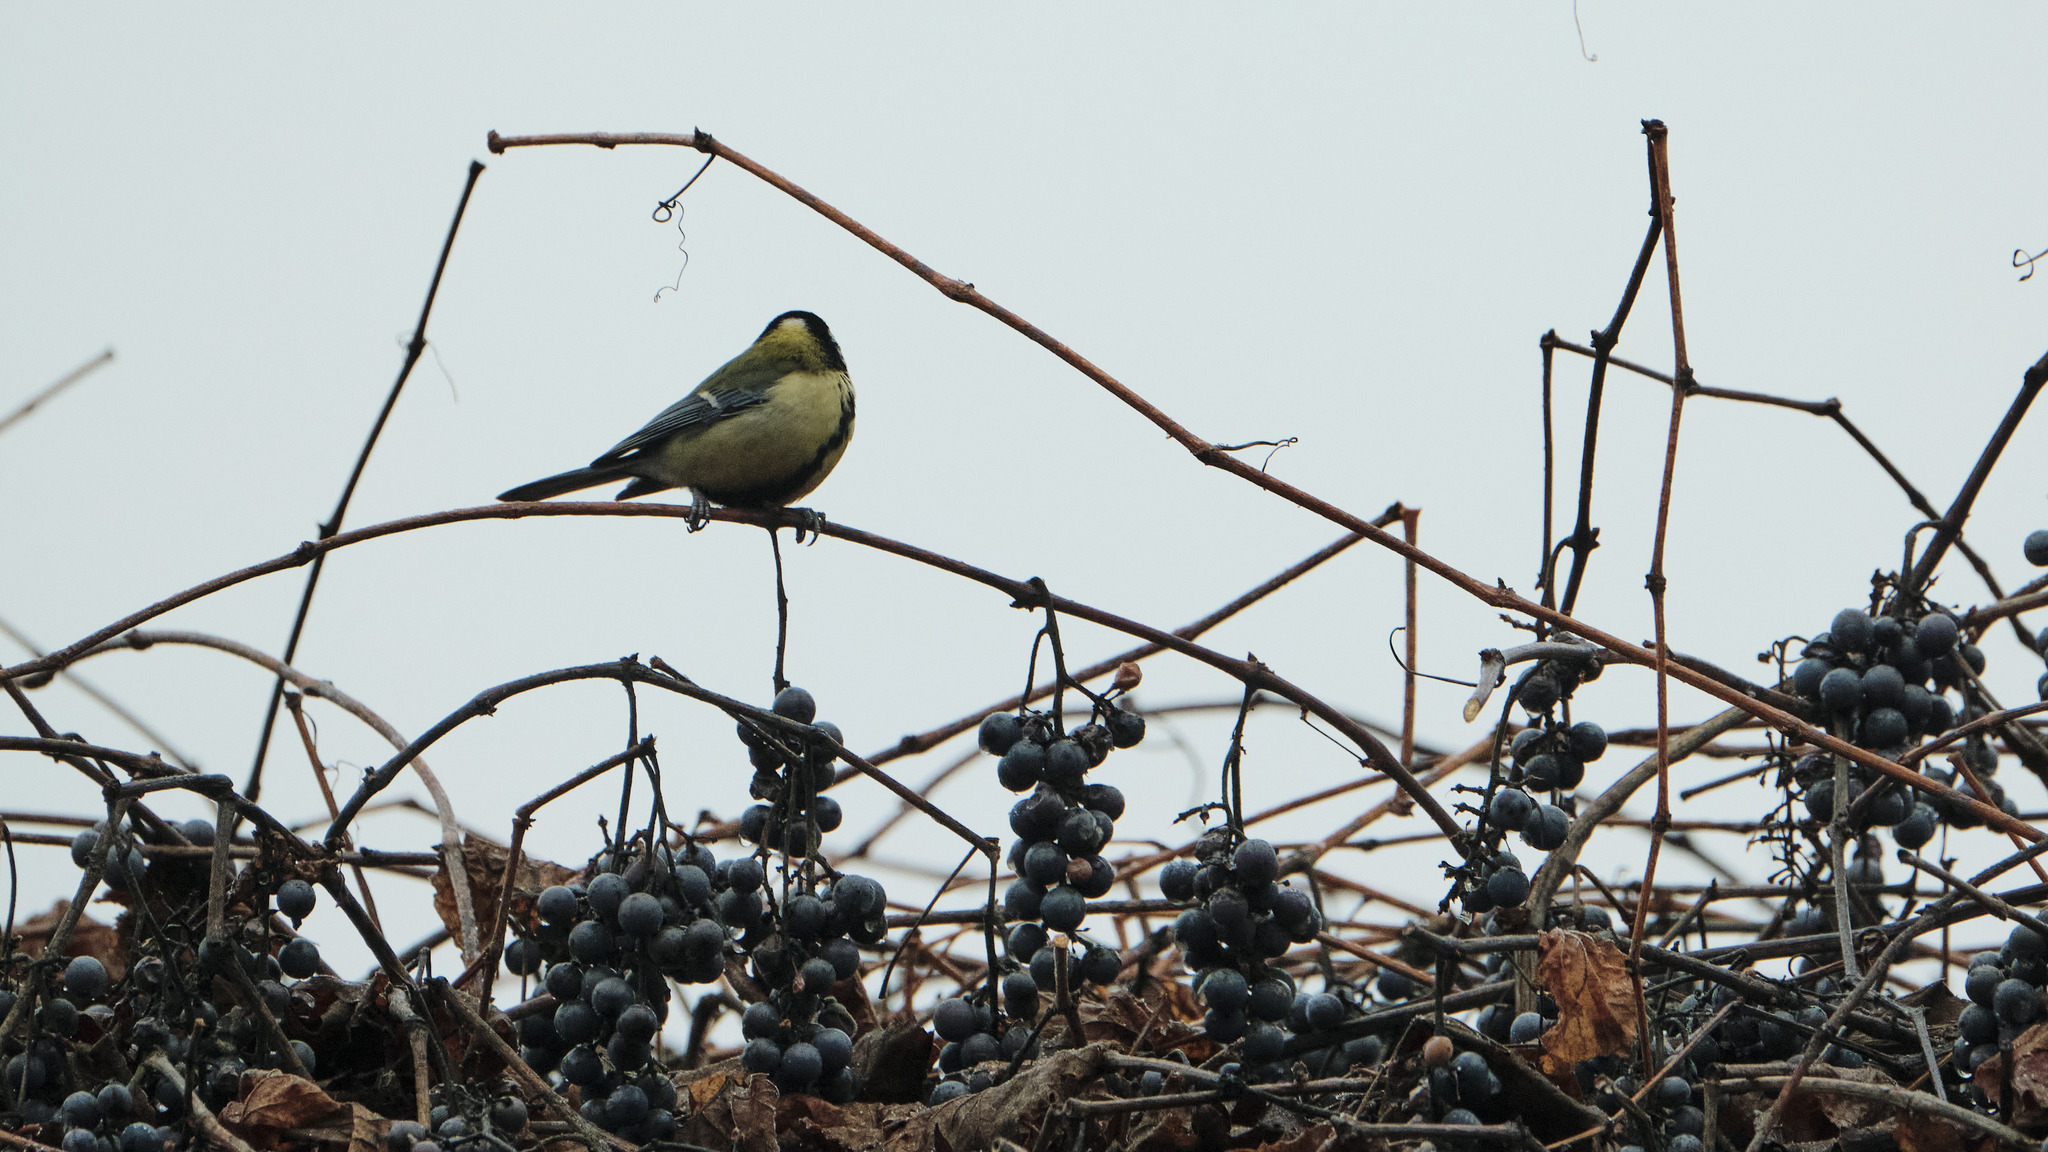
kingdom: Animalia
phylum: Chordata
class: Aves
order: Passeriformes
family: Paridae
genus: Parus
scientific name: Parus major
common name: Great tit
